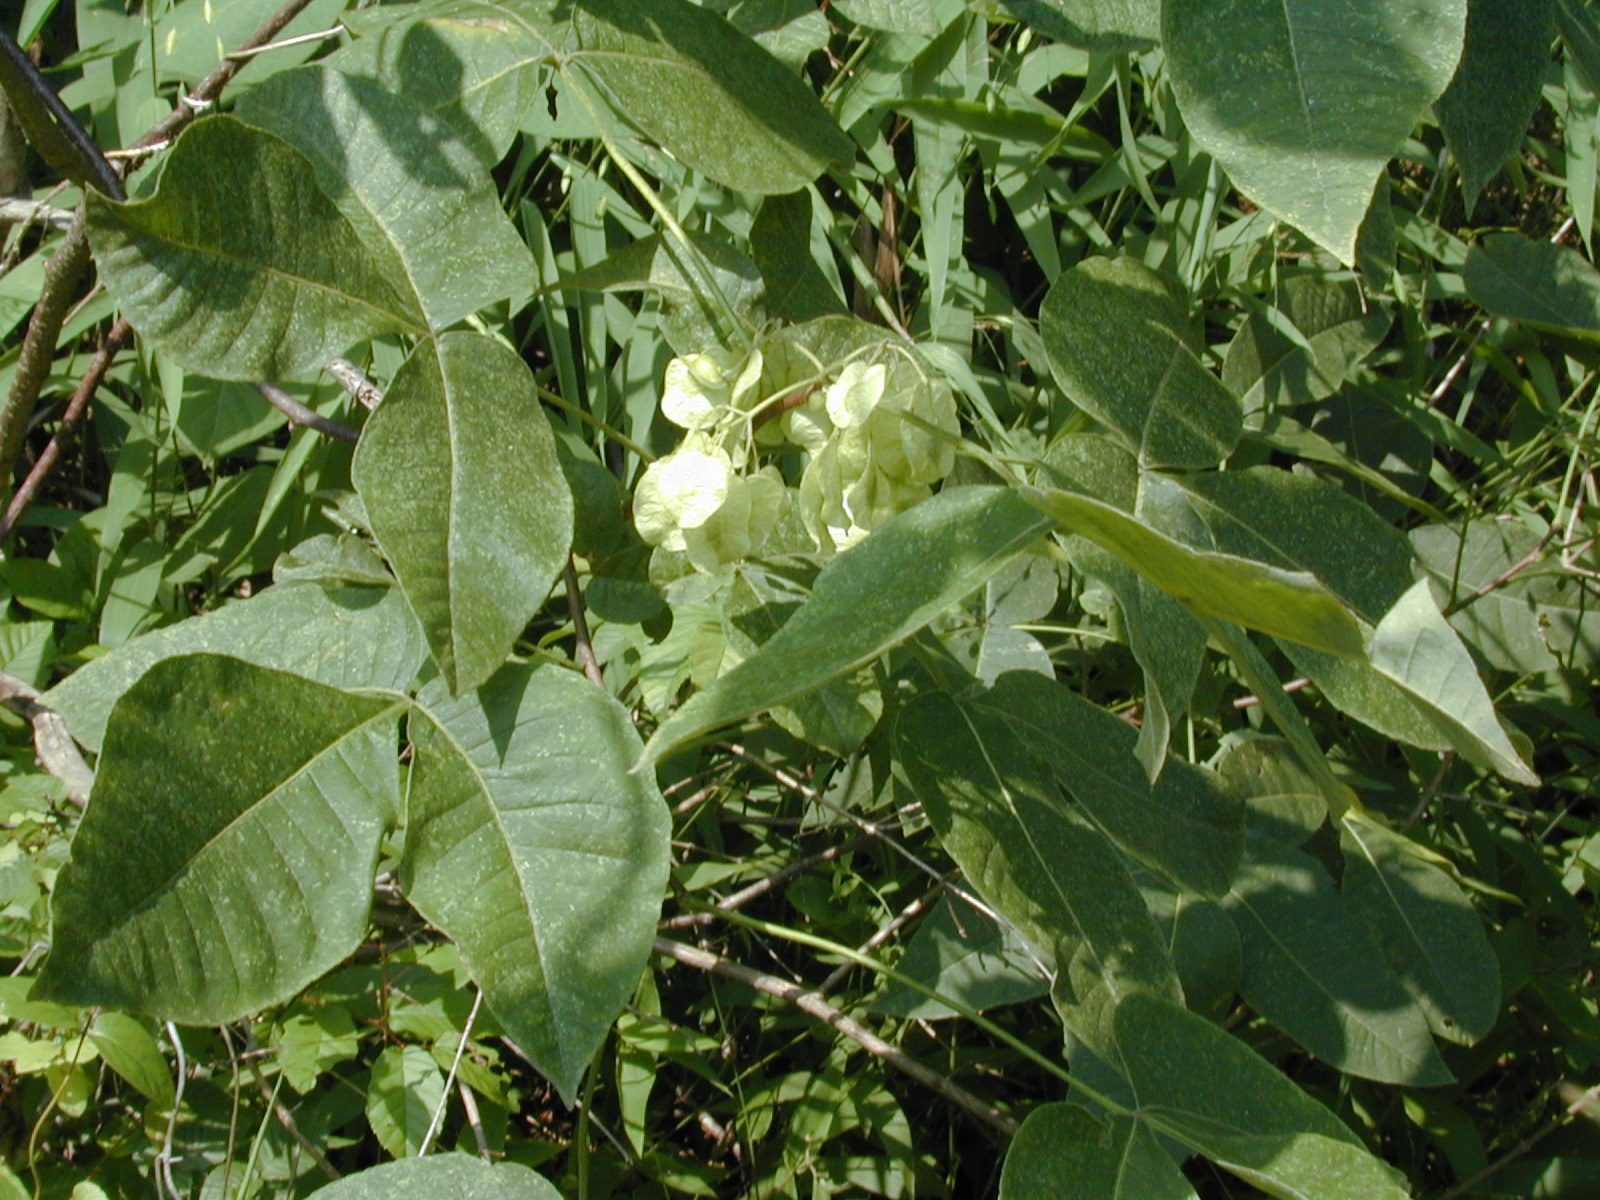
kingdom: Plantae
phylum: Tracheophyta
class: Magnoliopsida
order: Sapindales
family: Rutaceae
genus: Ptelea
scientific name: Ptelea trifoliata
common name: Common hop-tree
